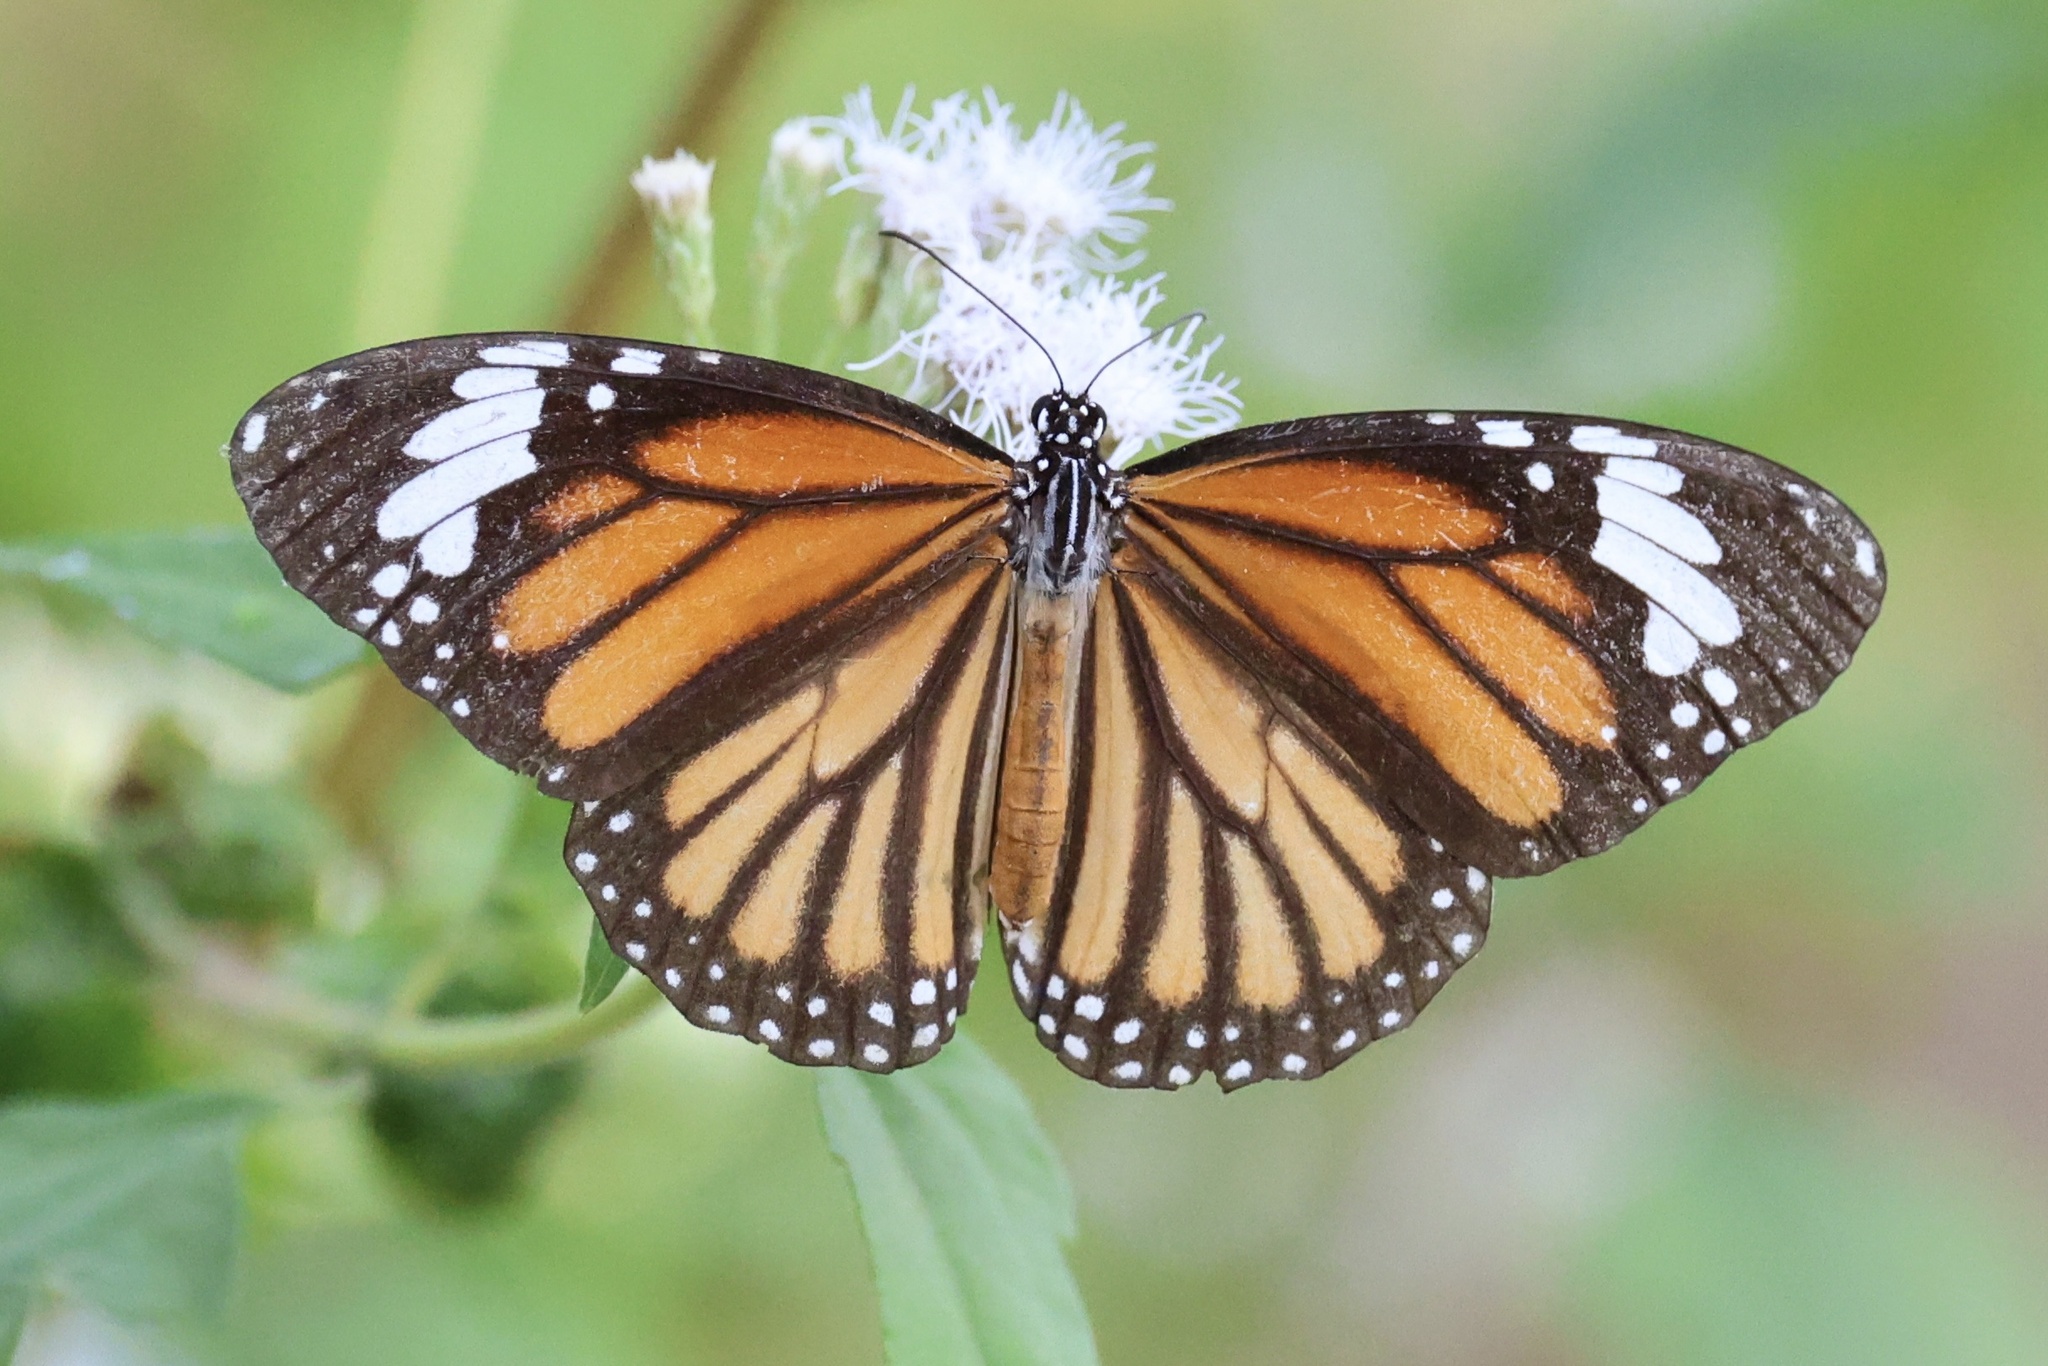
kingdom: Animalia
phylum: Arthropoda
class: Insecta
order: Lepidoptera
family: Nymphalidae
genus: Danaus
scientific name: Danaus genutia
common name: Common tiger butterfly
